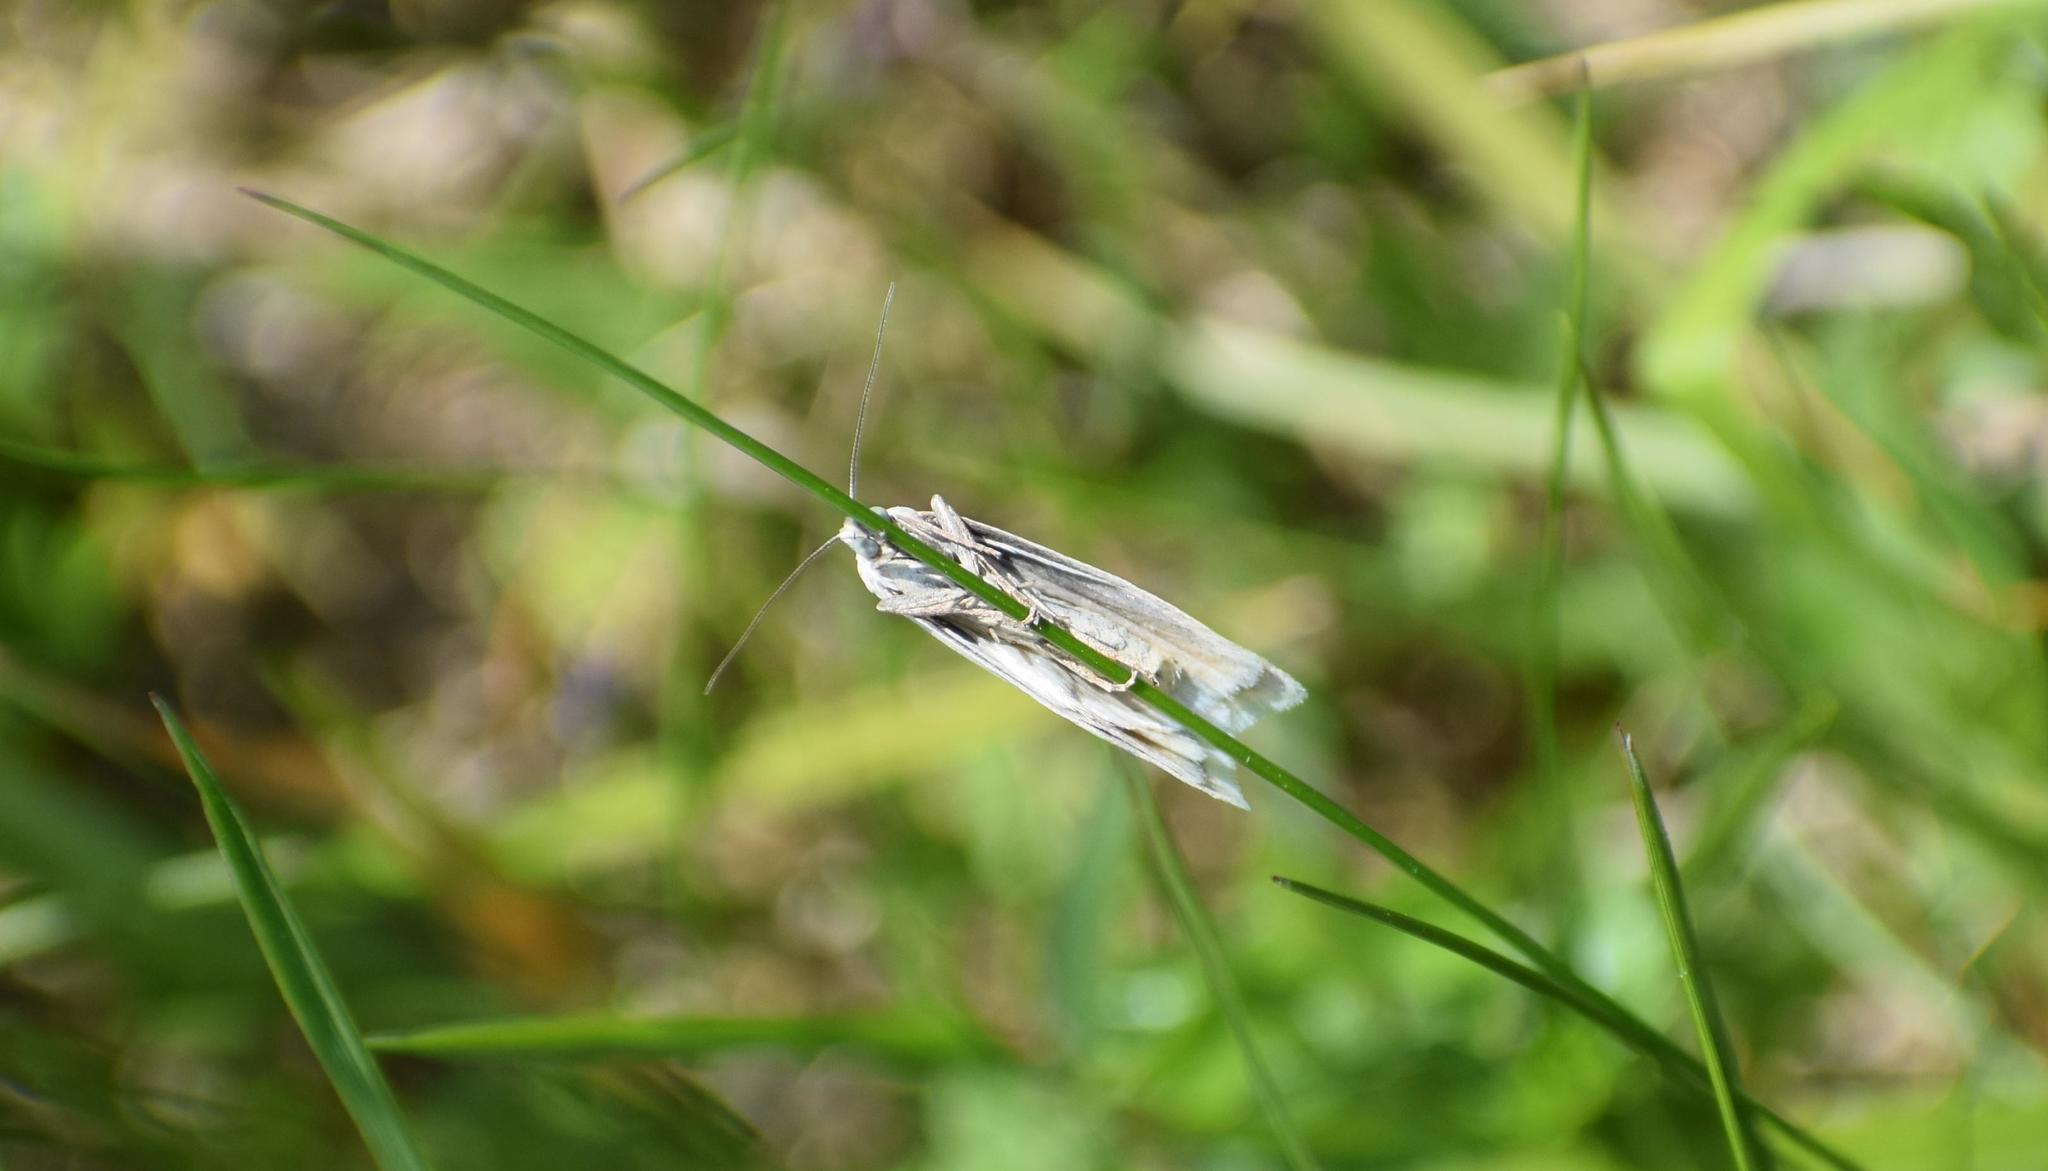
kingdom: Animalia
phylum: Arthropoda
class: Insecta
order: Lepidoptera
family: Tortricidae
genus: Eana
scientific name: Eana argentana
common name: Silver shade
